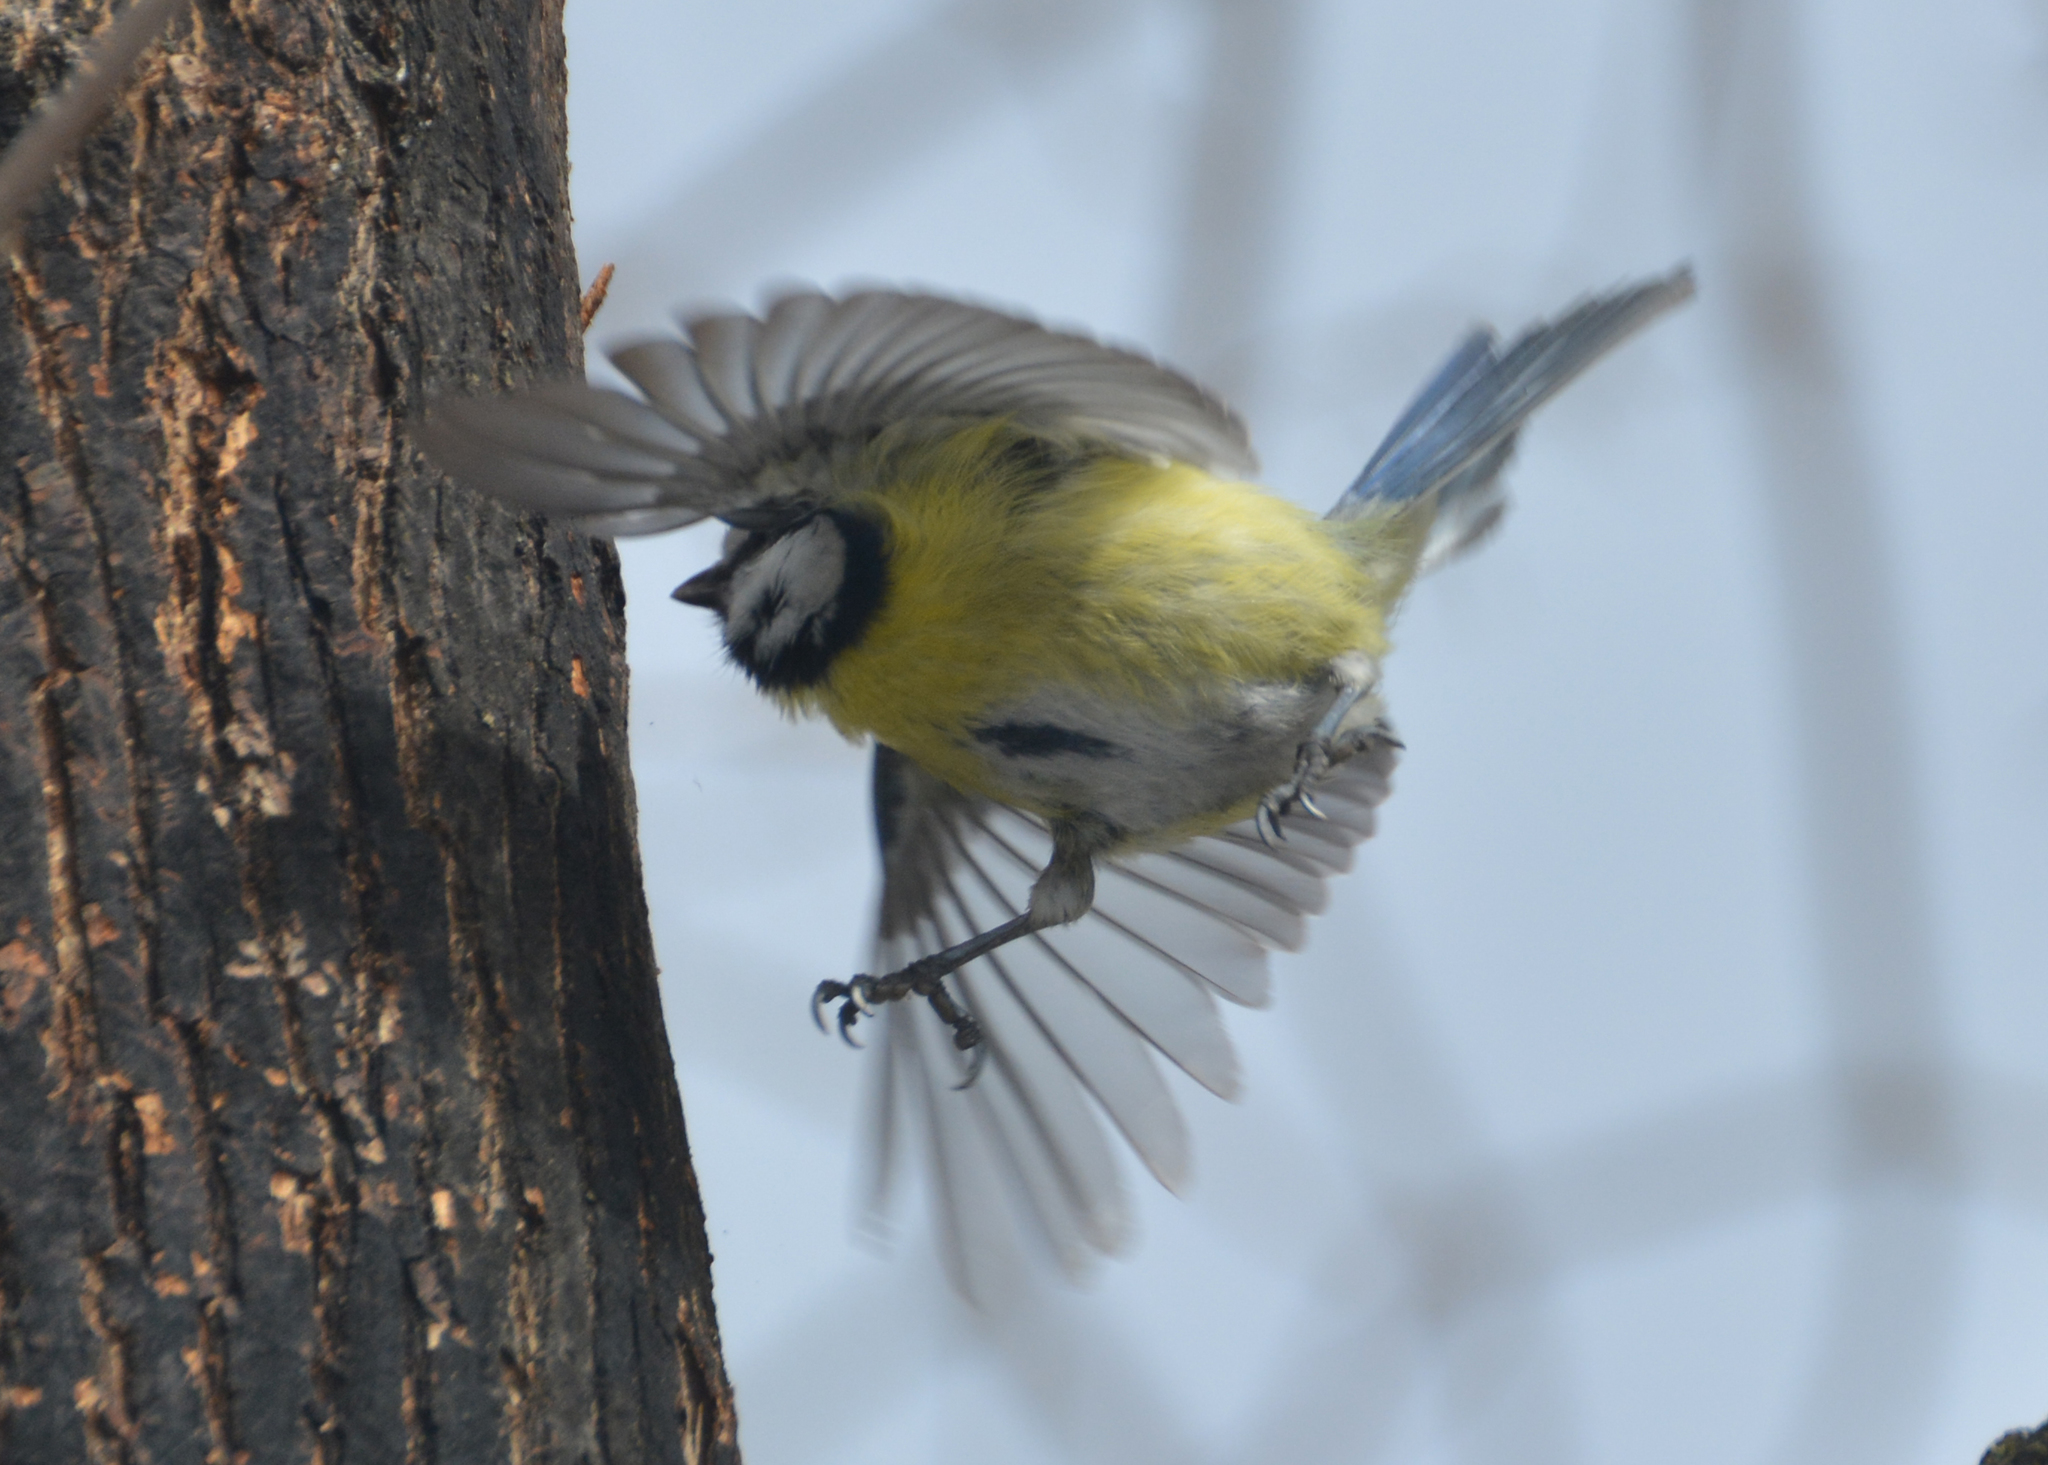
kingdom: Animalia
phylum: Chordata
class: Aves
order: Passeriformes
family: Paridae
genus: Cyanistes
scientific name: Cyanistes caeruleus
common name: Eurasian blue tit
